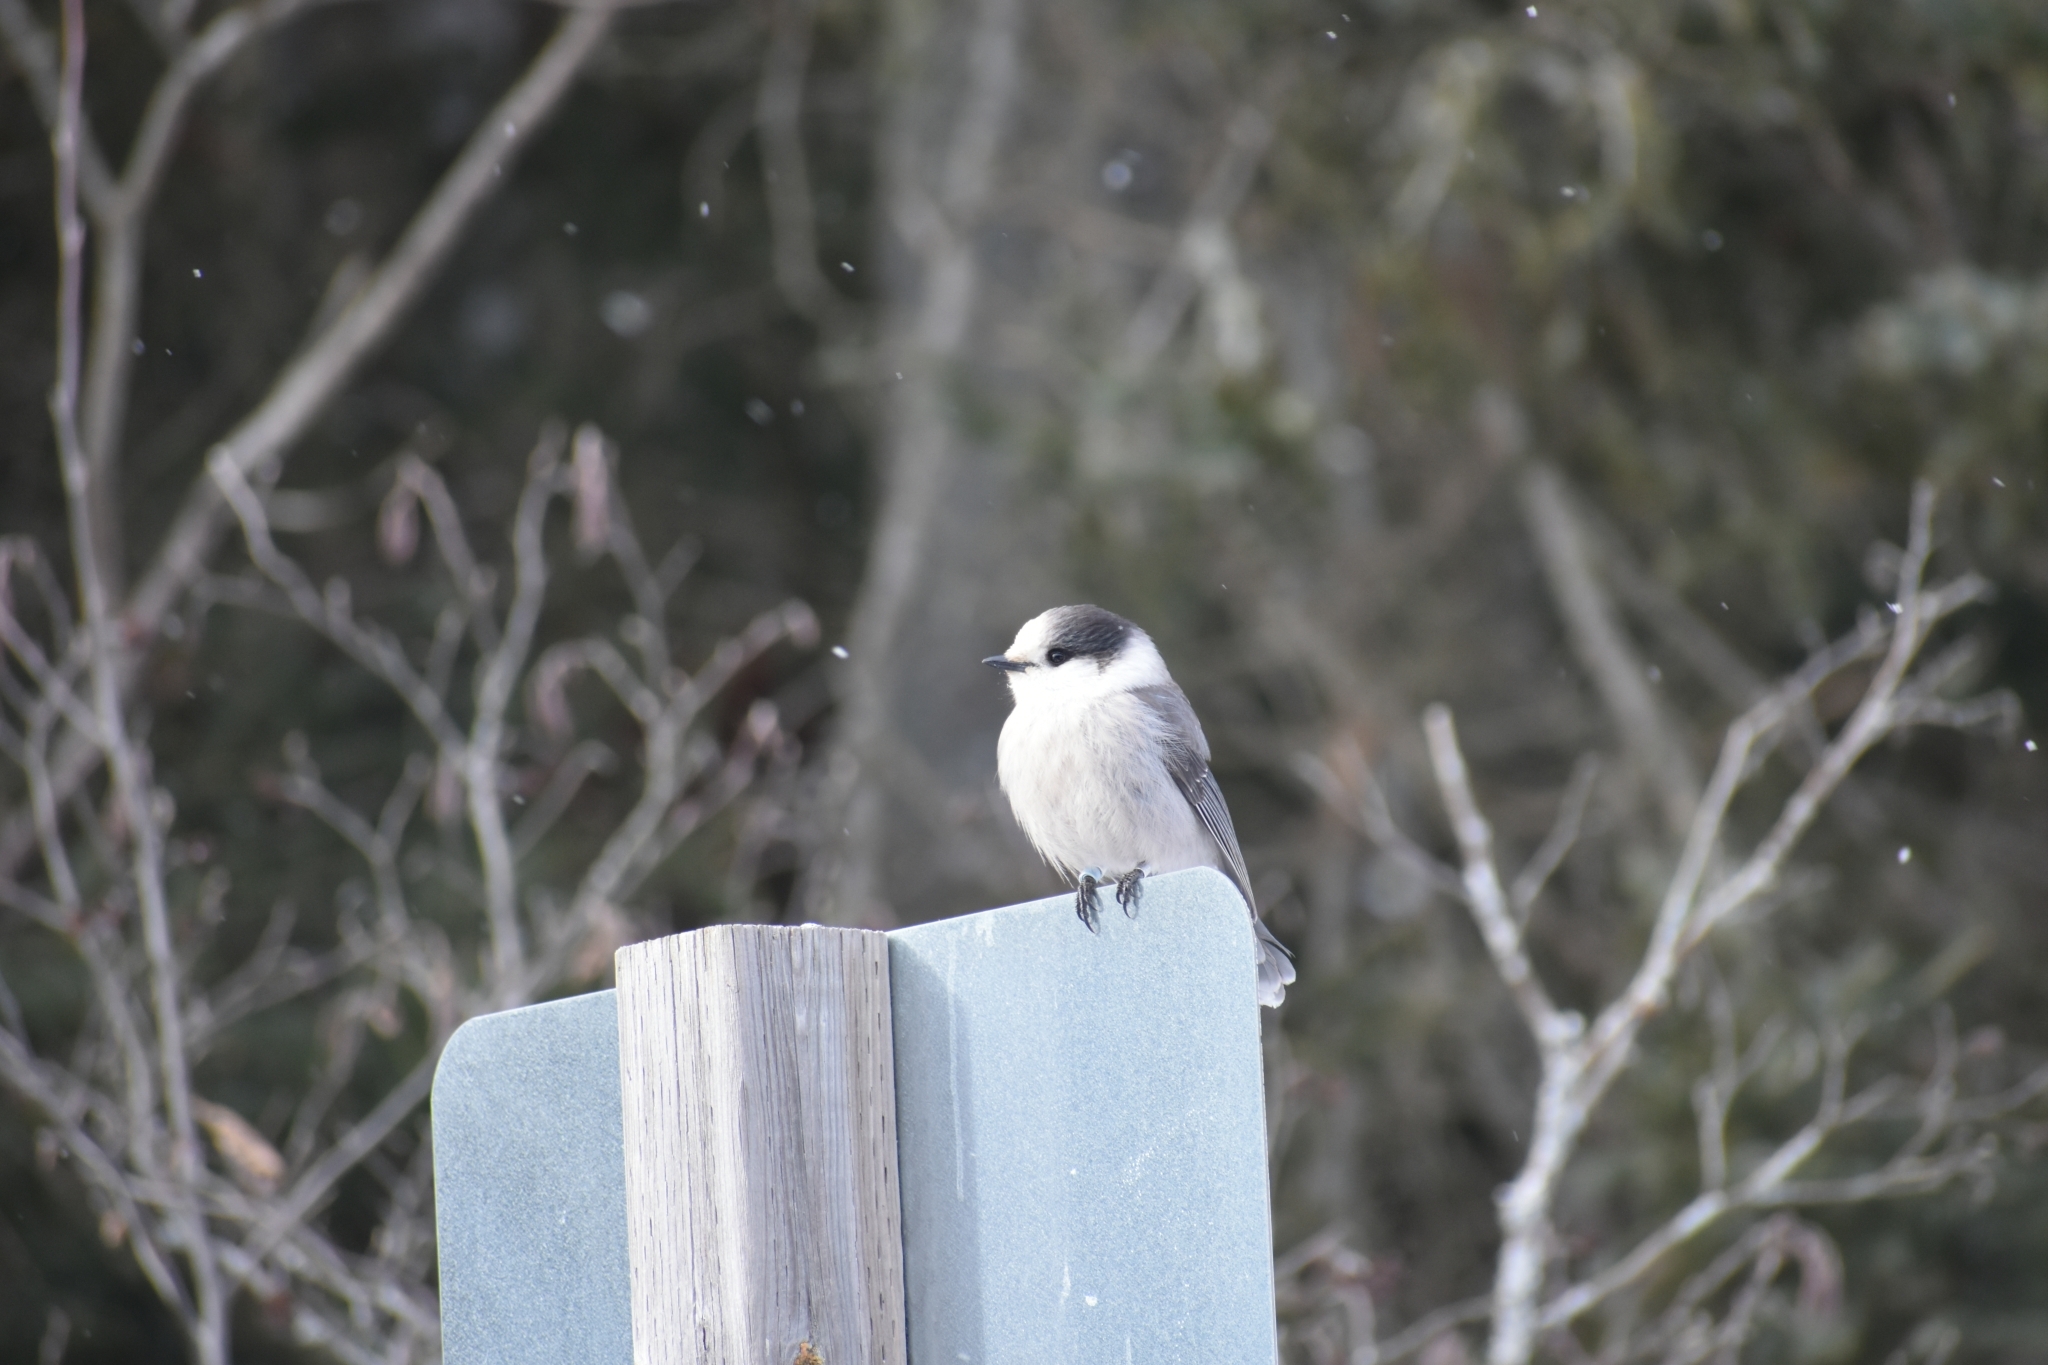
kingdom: Animalia
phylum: Chordata
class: Aves
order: Passeriformes
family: Corvidae
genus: Perisoreus
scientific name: Perisoreus canadensis
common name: Gray jay
